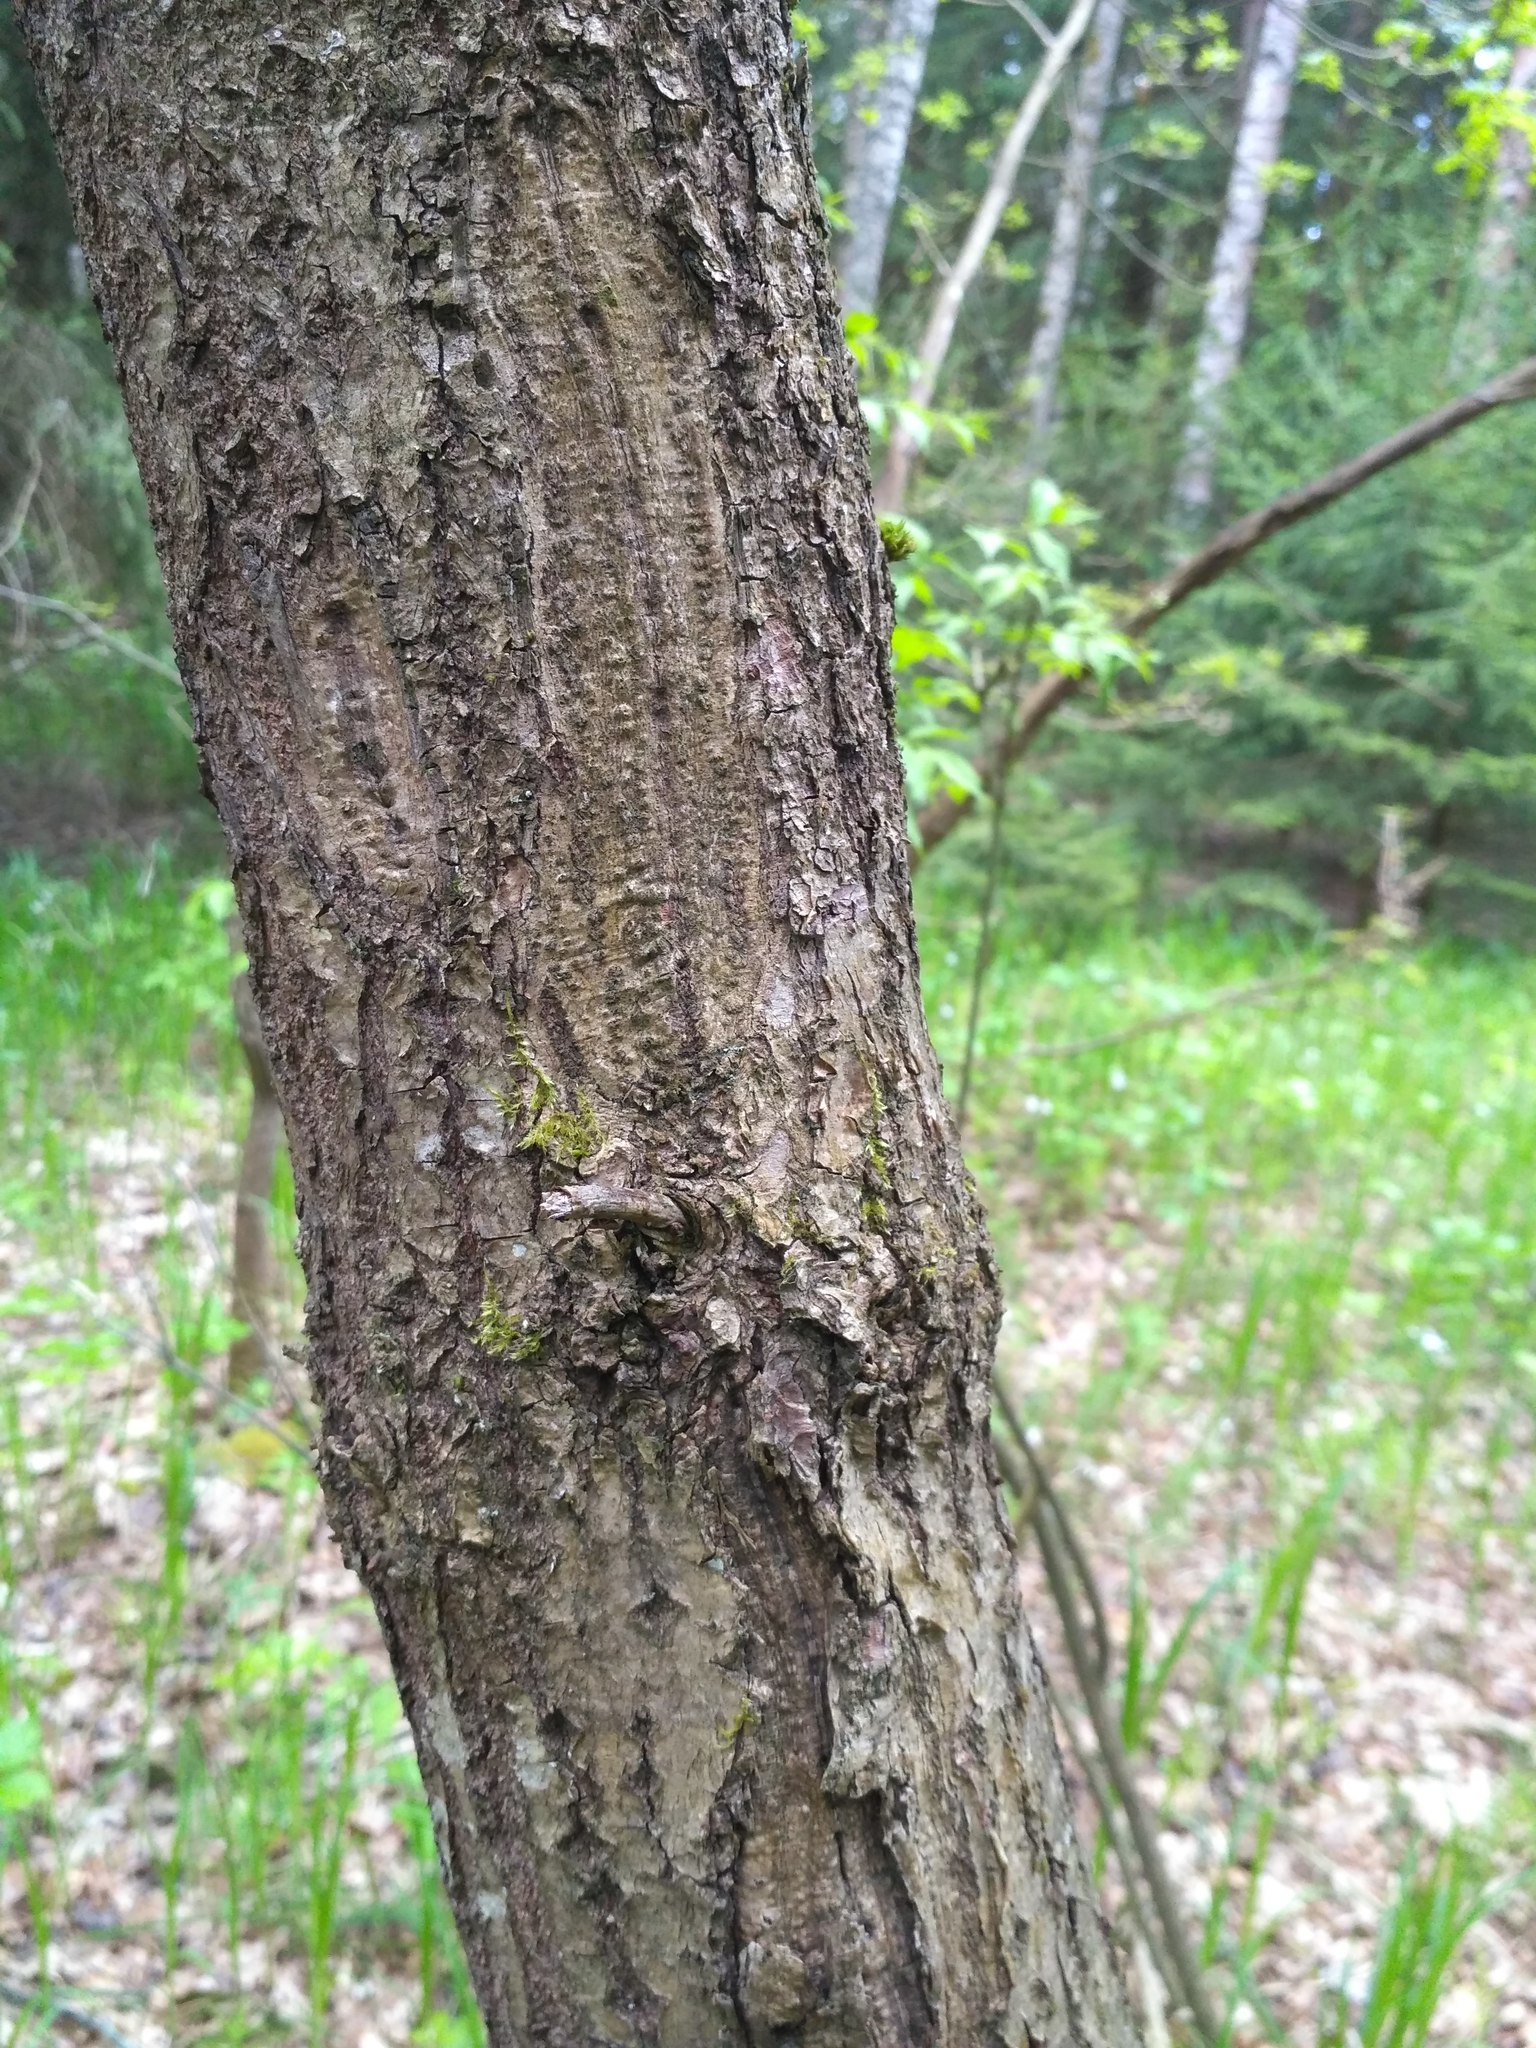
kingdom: Plantae
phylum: Tracheophyta
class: Magnoliopsida
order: Fagales
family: Fagaceae
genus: Quercus
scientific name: Quercus robur
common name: Pedunculate oak
